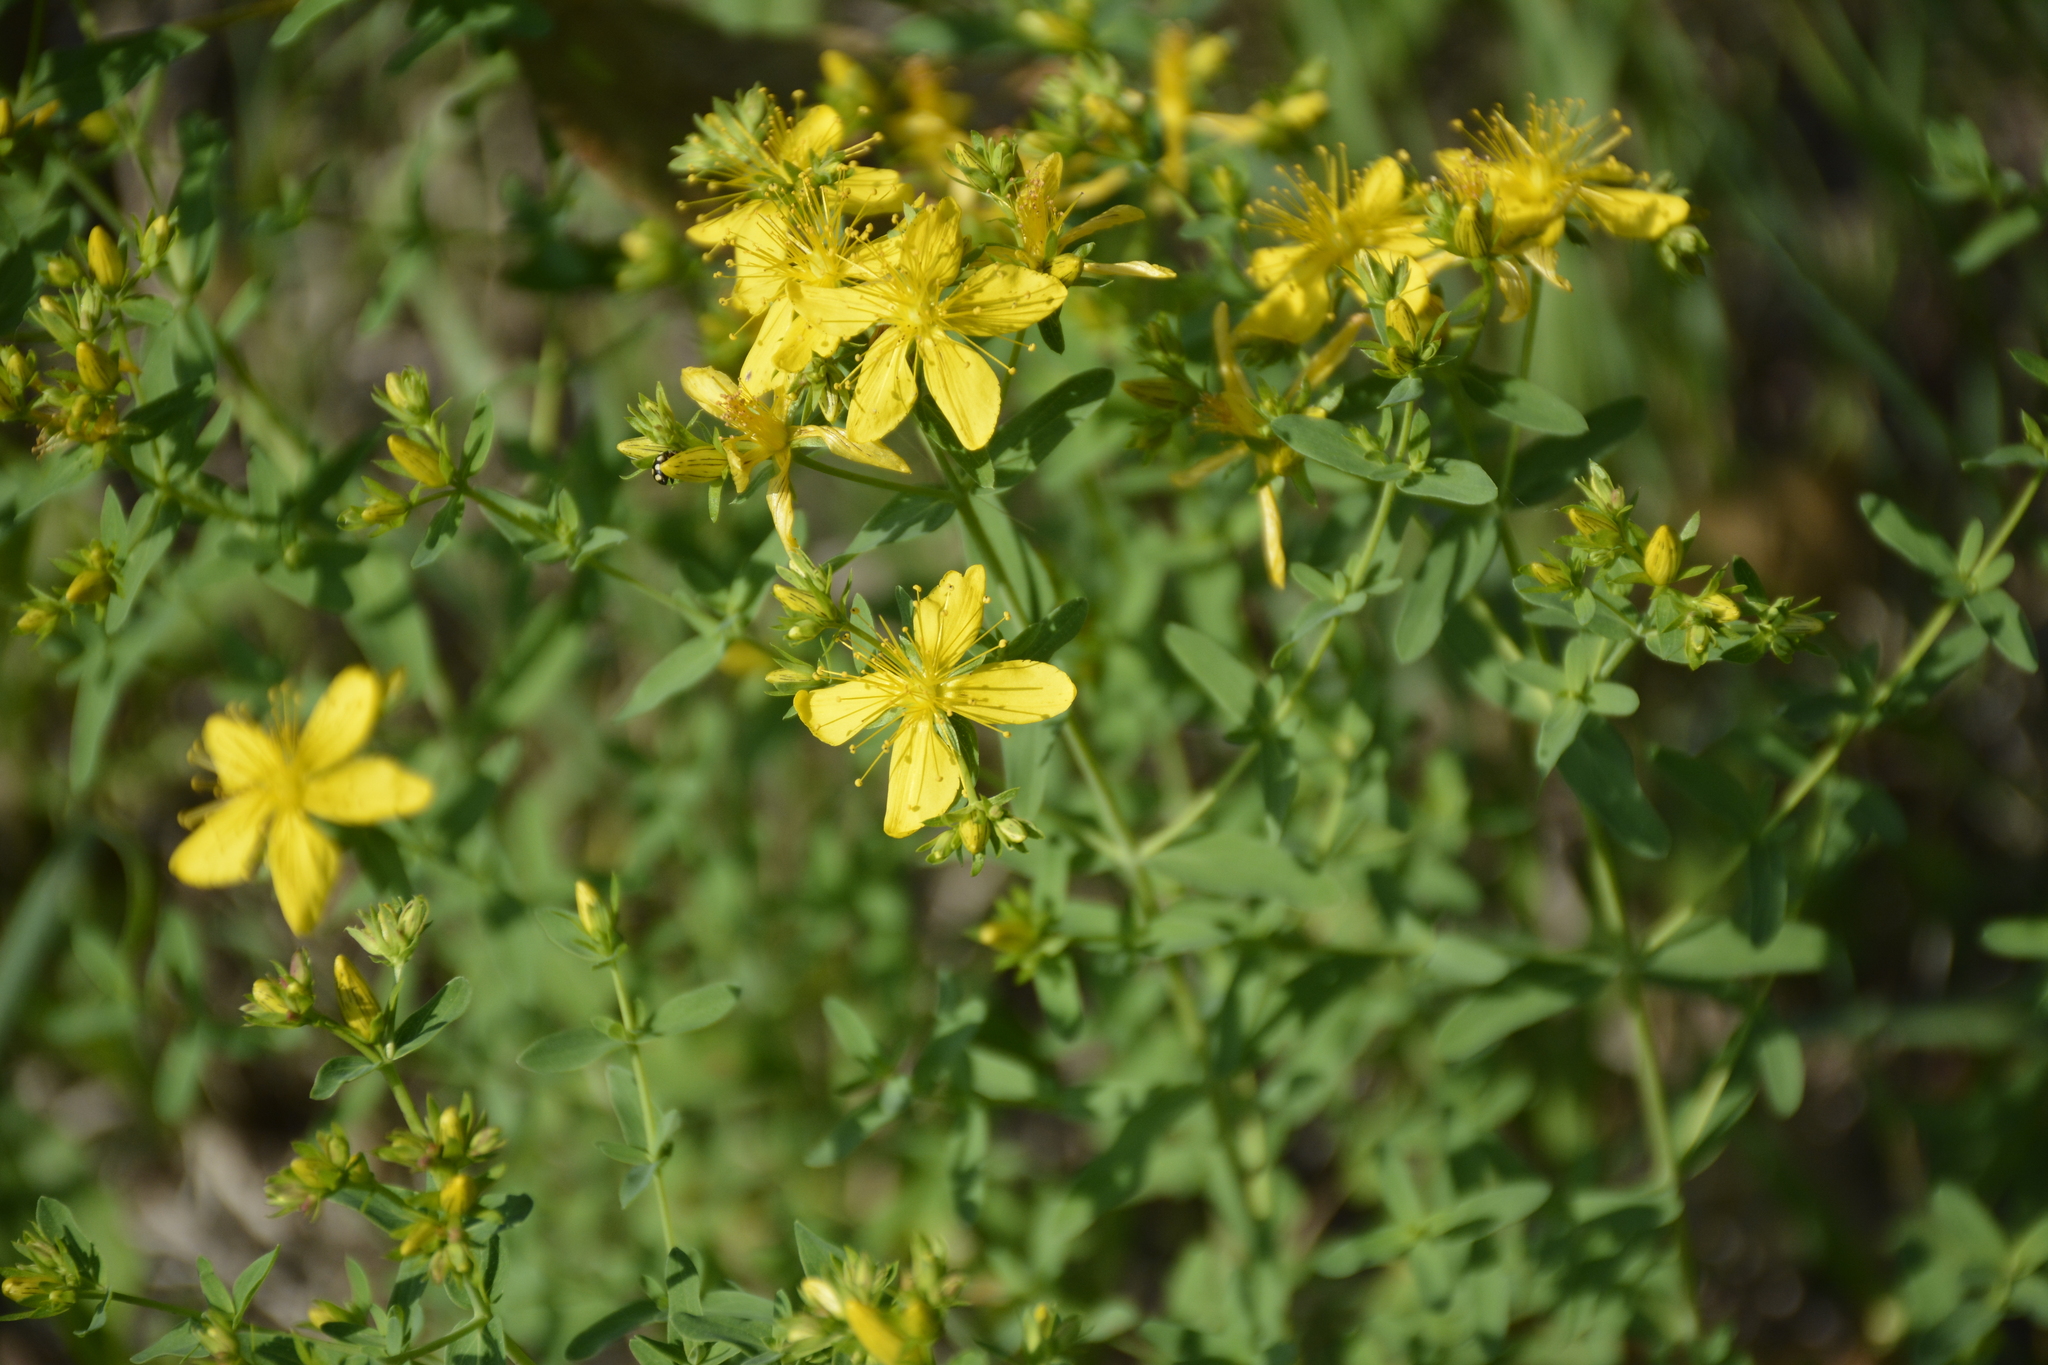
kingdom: Plantae
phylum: Tracheophyta
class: Magnoliopsida
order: Malpighiales
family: Hypericaceae
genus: Hypericum
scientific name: Hypericum perforatum
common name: Common st. johnswort
